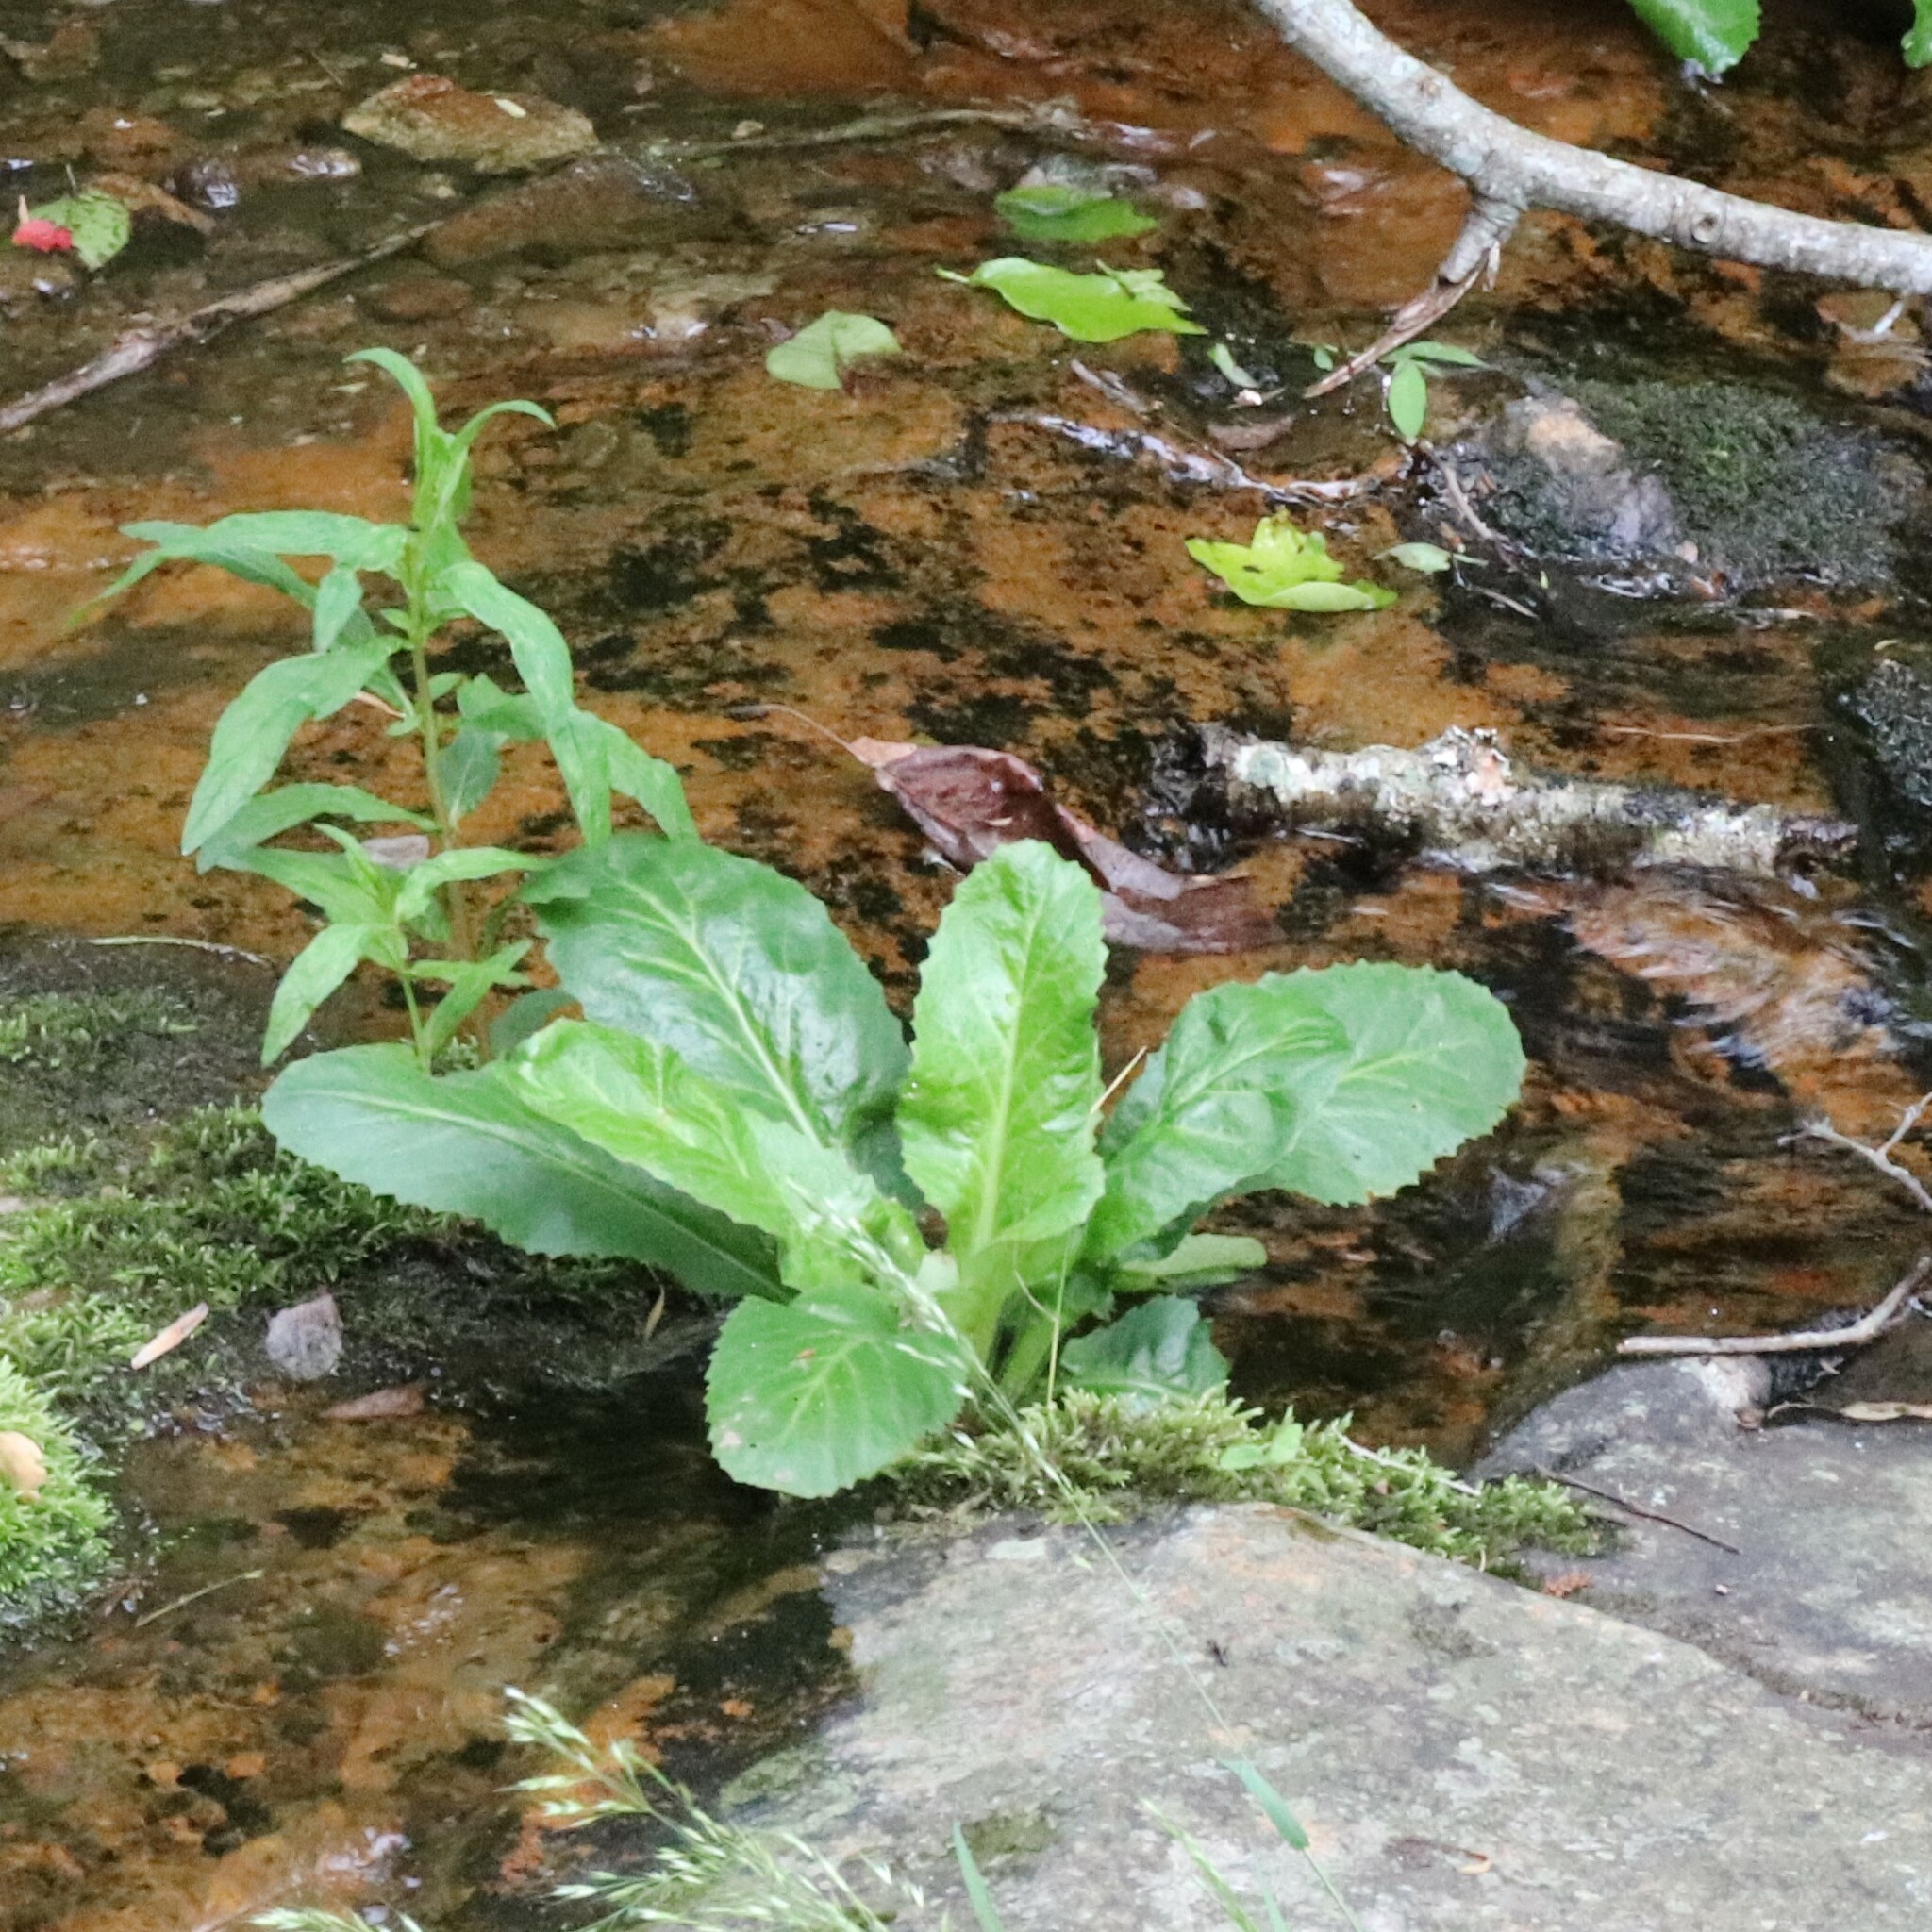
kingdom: Plantae
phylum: Tracheophyta
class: Magnoliopsida
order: Saxifragales
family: Saxifragaceae
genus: Micranthes
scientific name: Micranthes micranthidifolia
